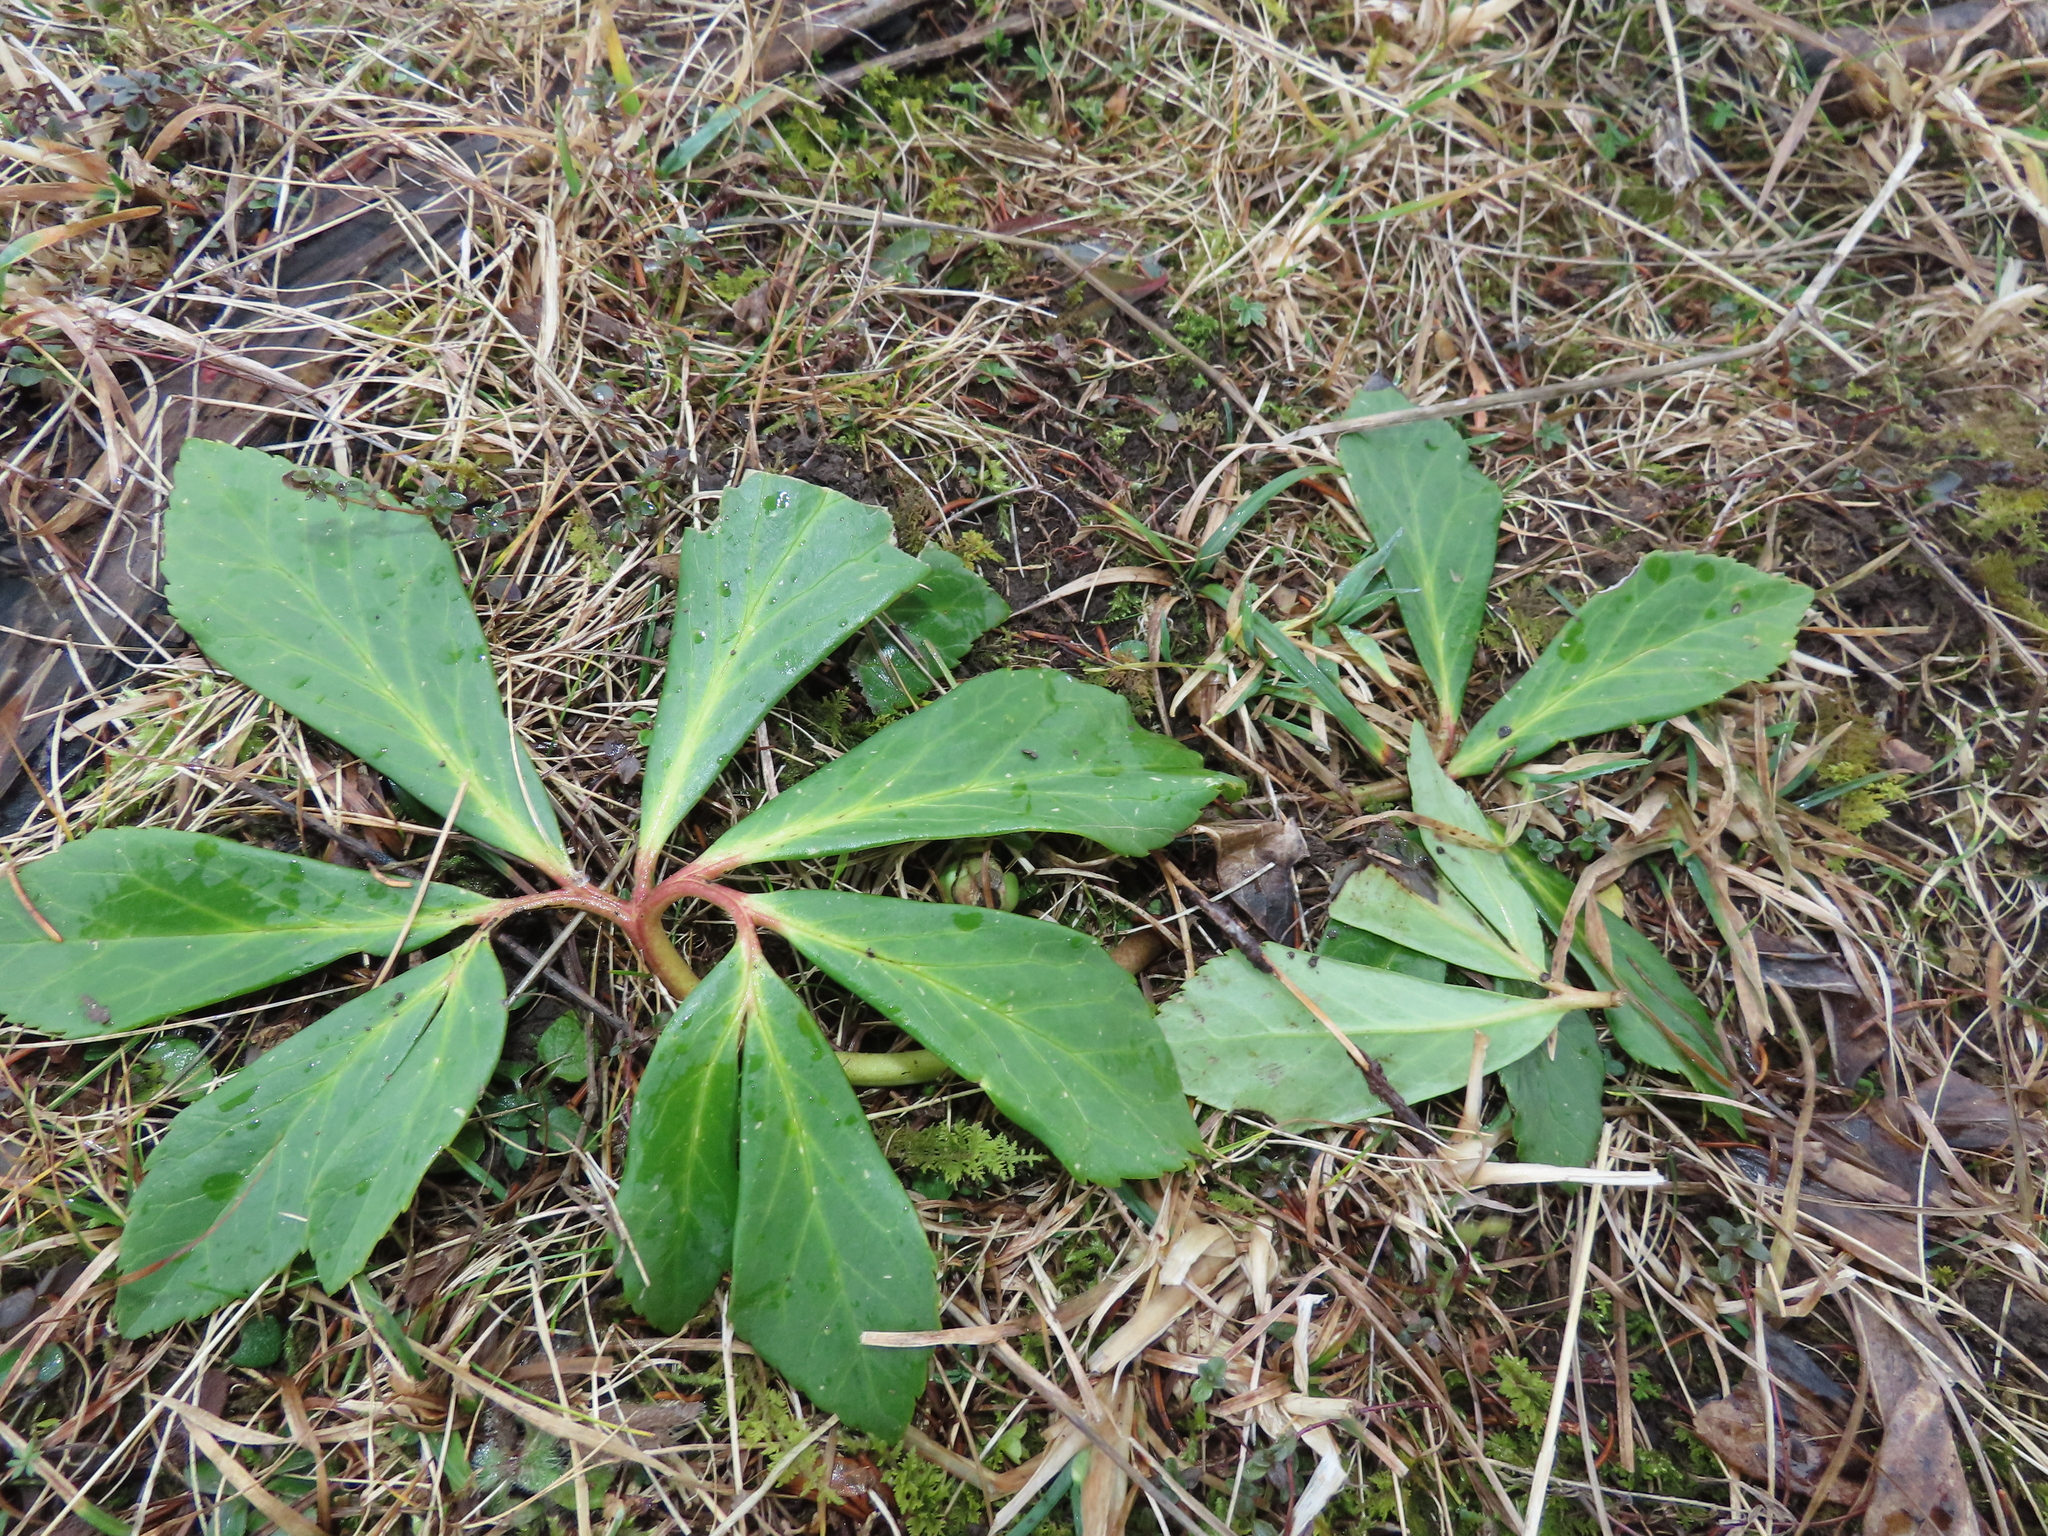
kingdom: Plantae
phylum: Tracheophyta
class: Magnoliopsida
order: Ranunculales
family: Ranunculaceae
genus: Helleborus
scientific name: Helleborus niger
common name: Black hellebore
